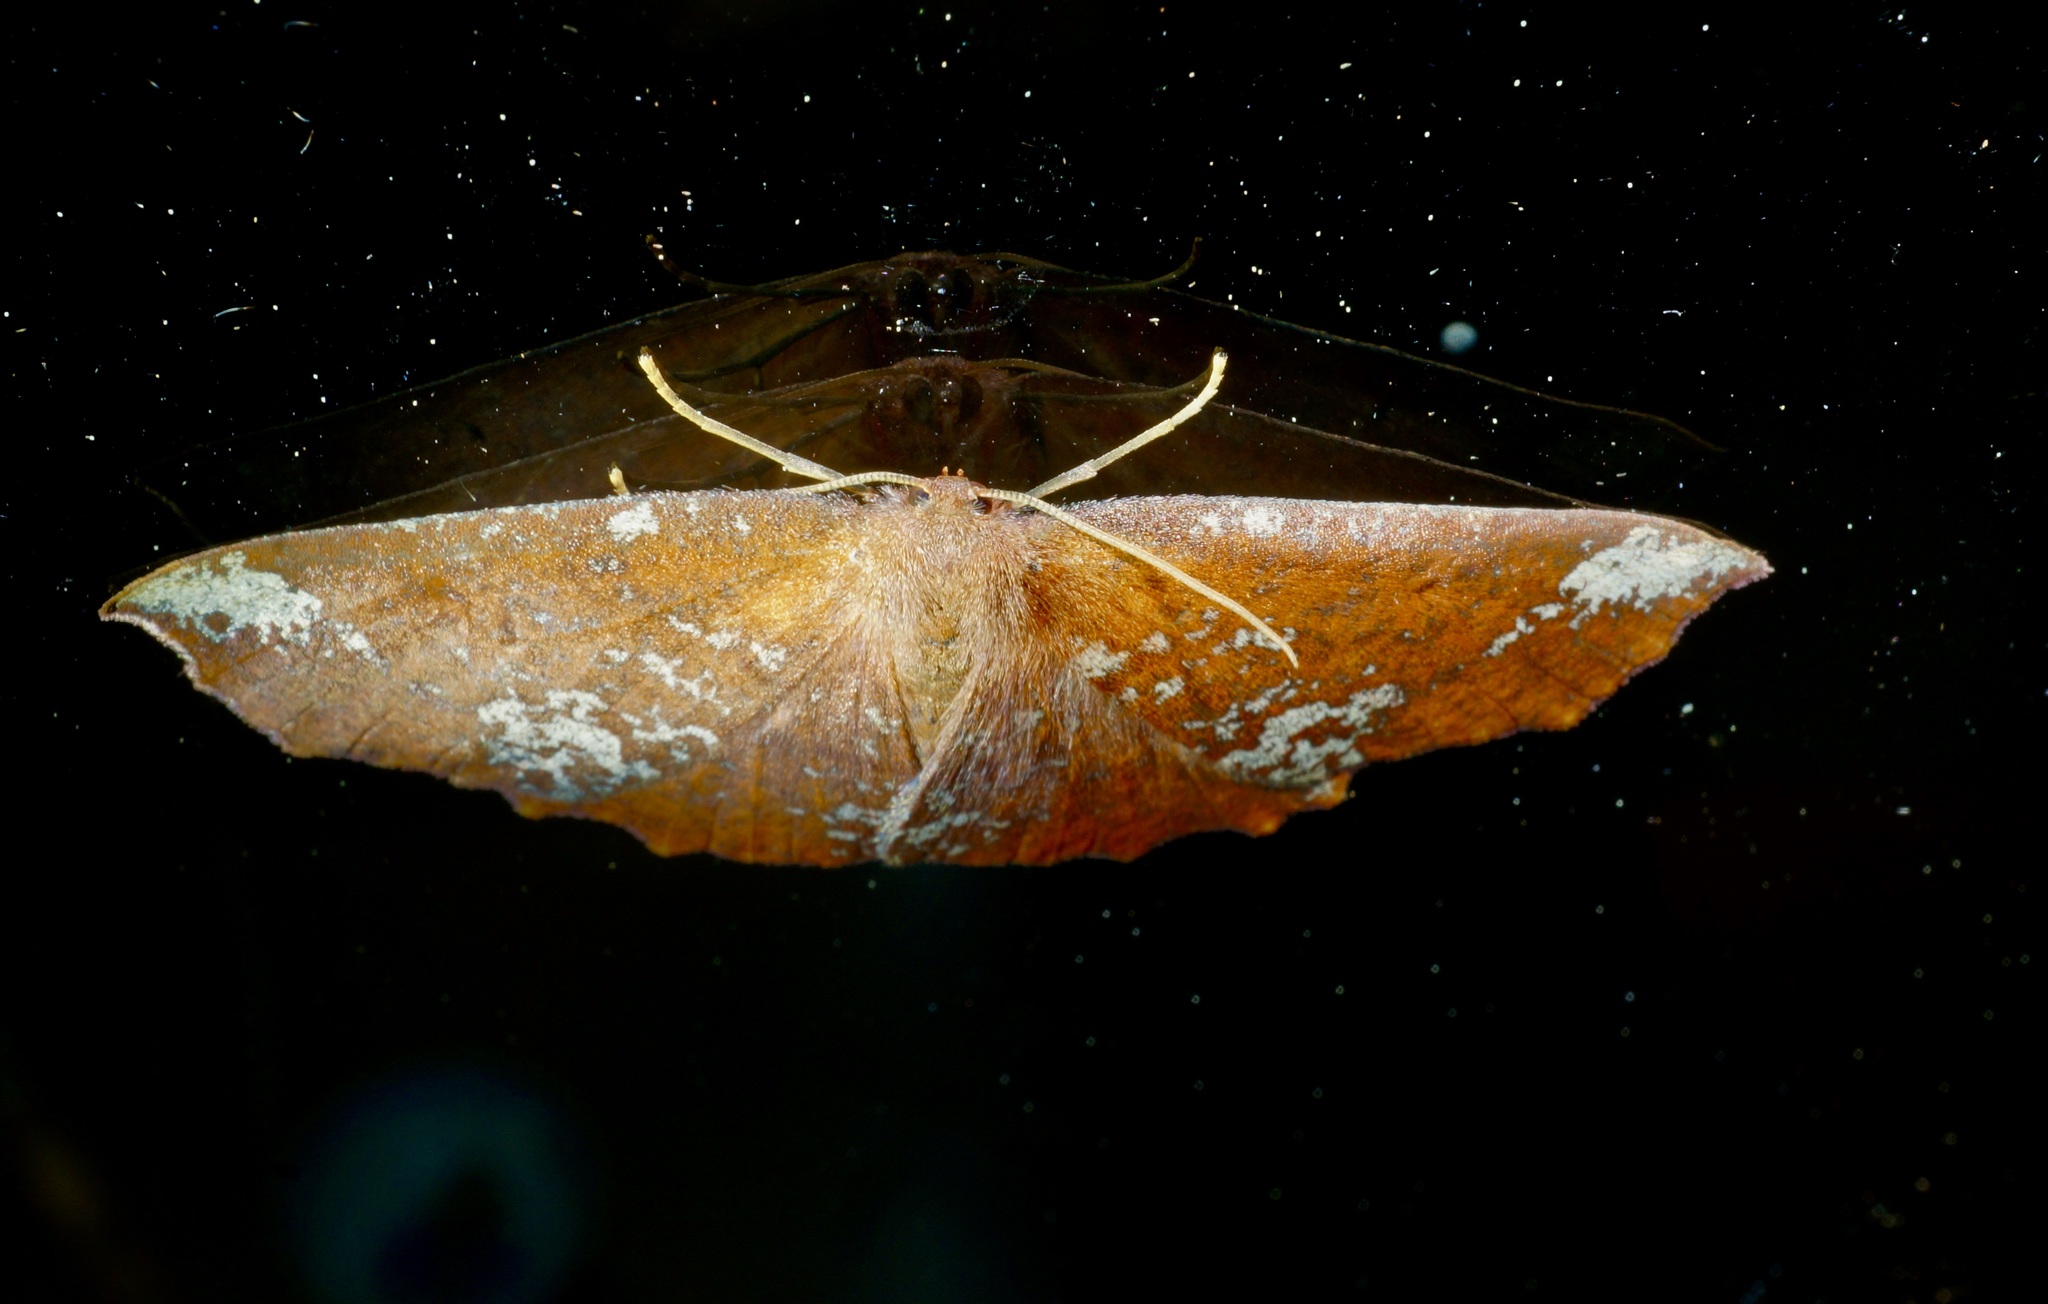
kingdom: Animalia
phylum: Arthropoda
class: Insecta
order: Lepidoptera
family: Geometridae
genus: Xyridacma
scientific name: Xyridacma ustaria
